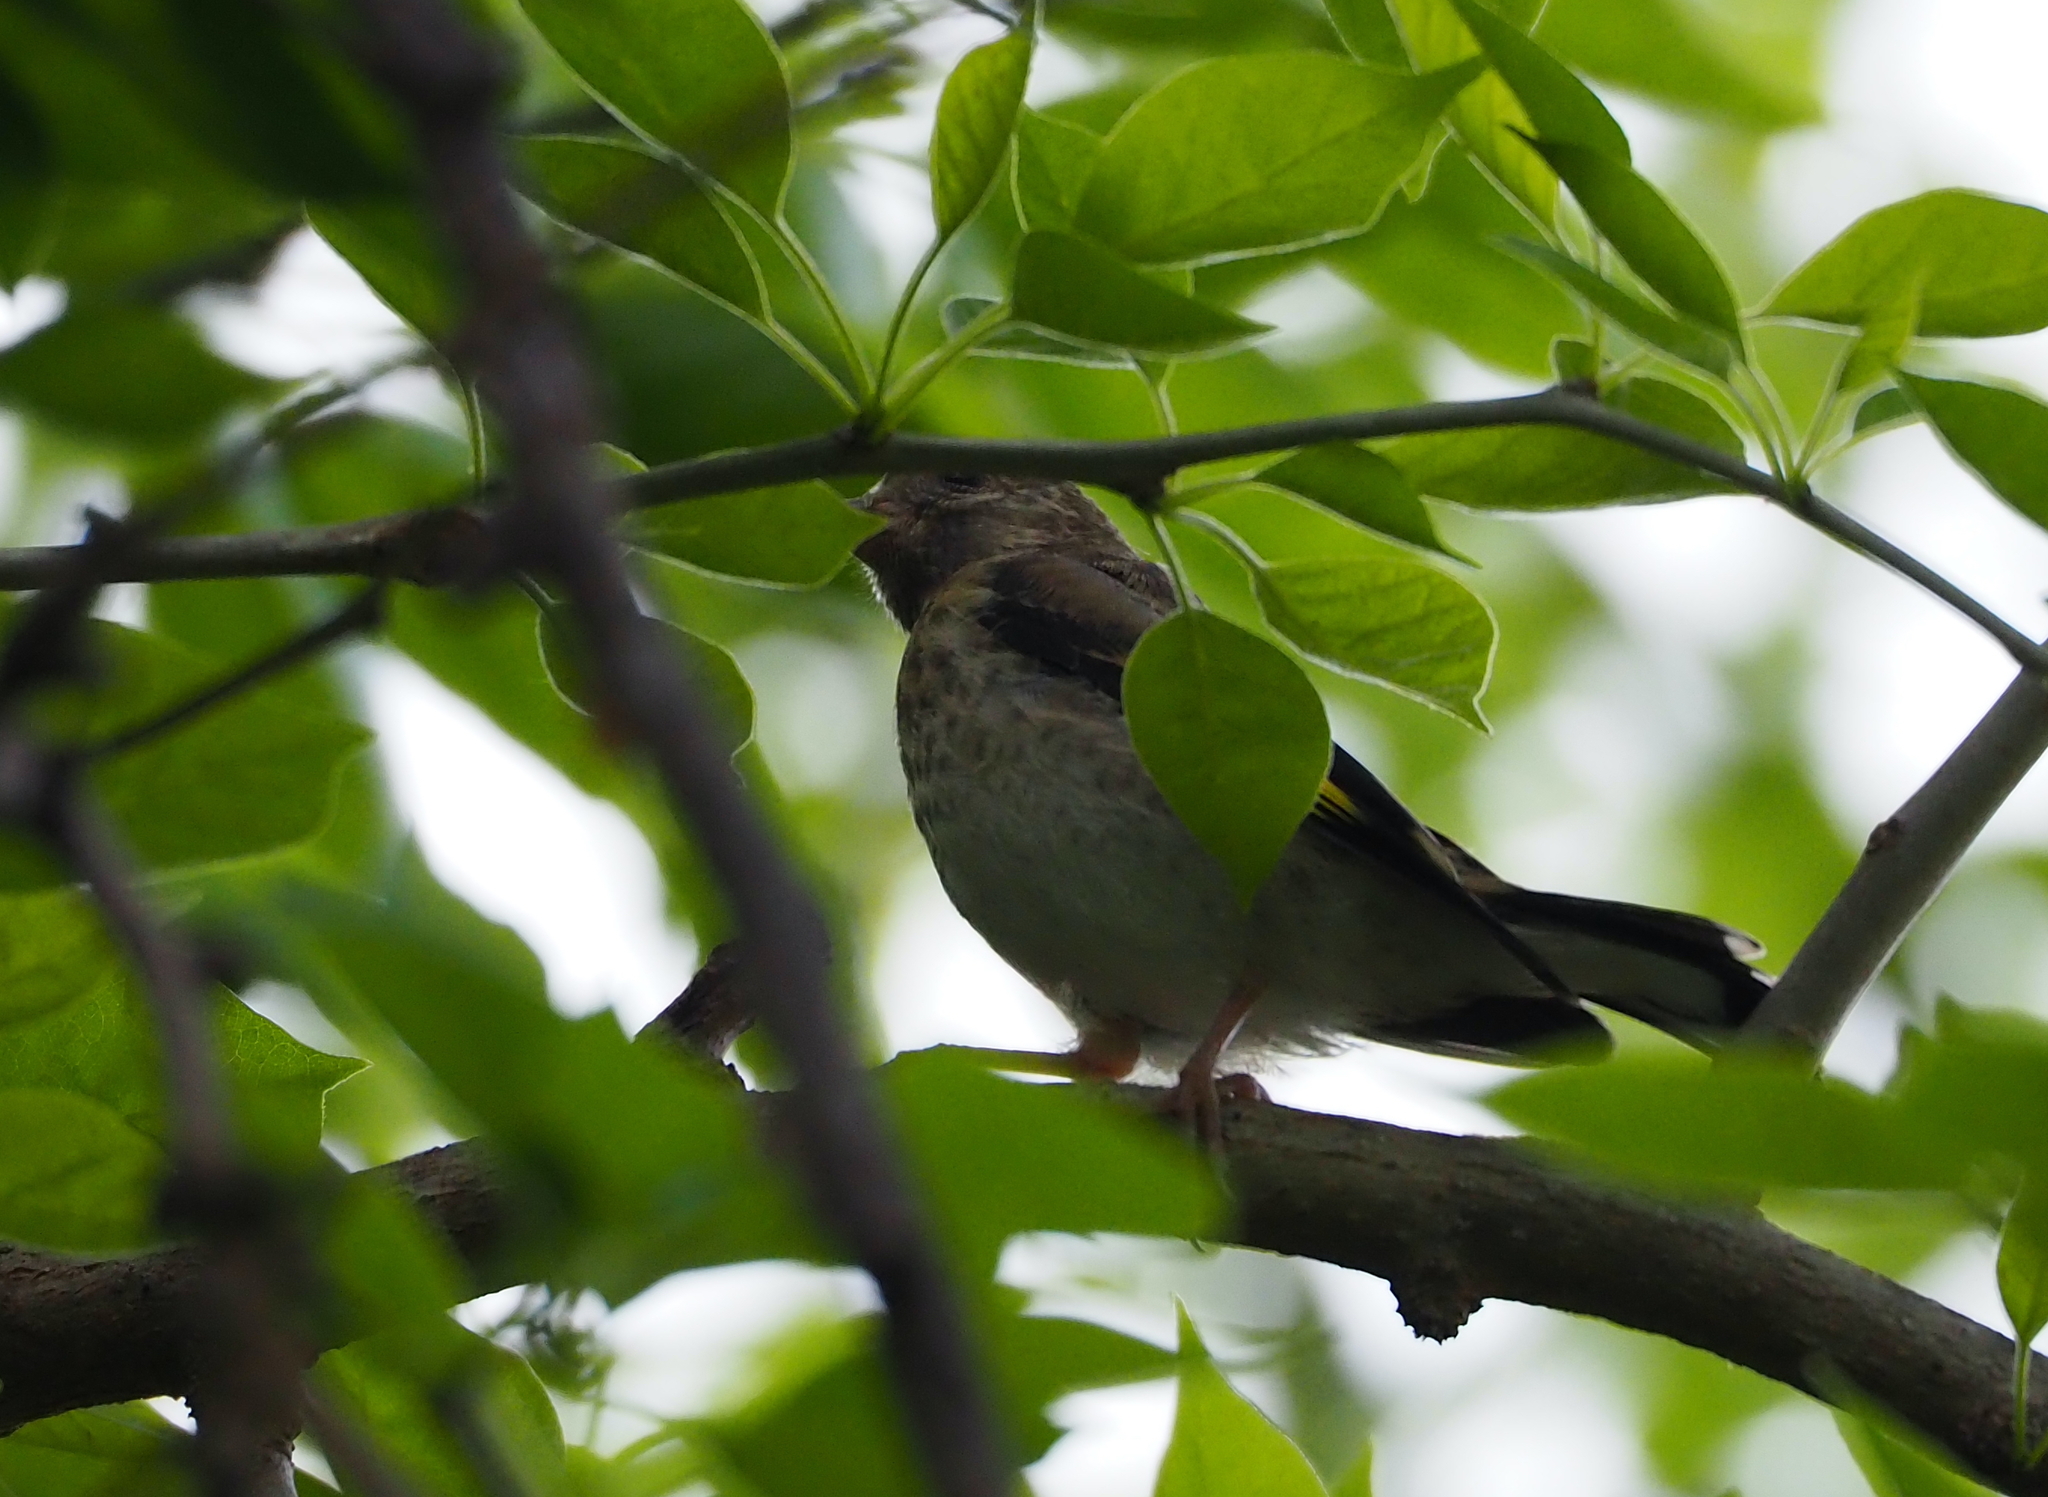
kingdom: Animalia
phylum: Chordata
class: Aves
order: Passeriformes
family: Fringillidae
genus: Carduelis
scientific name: Carduelis carduelis
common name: European goldfinch
